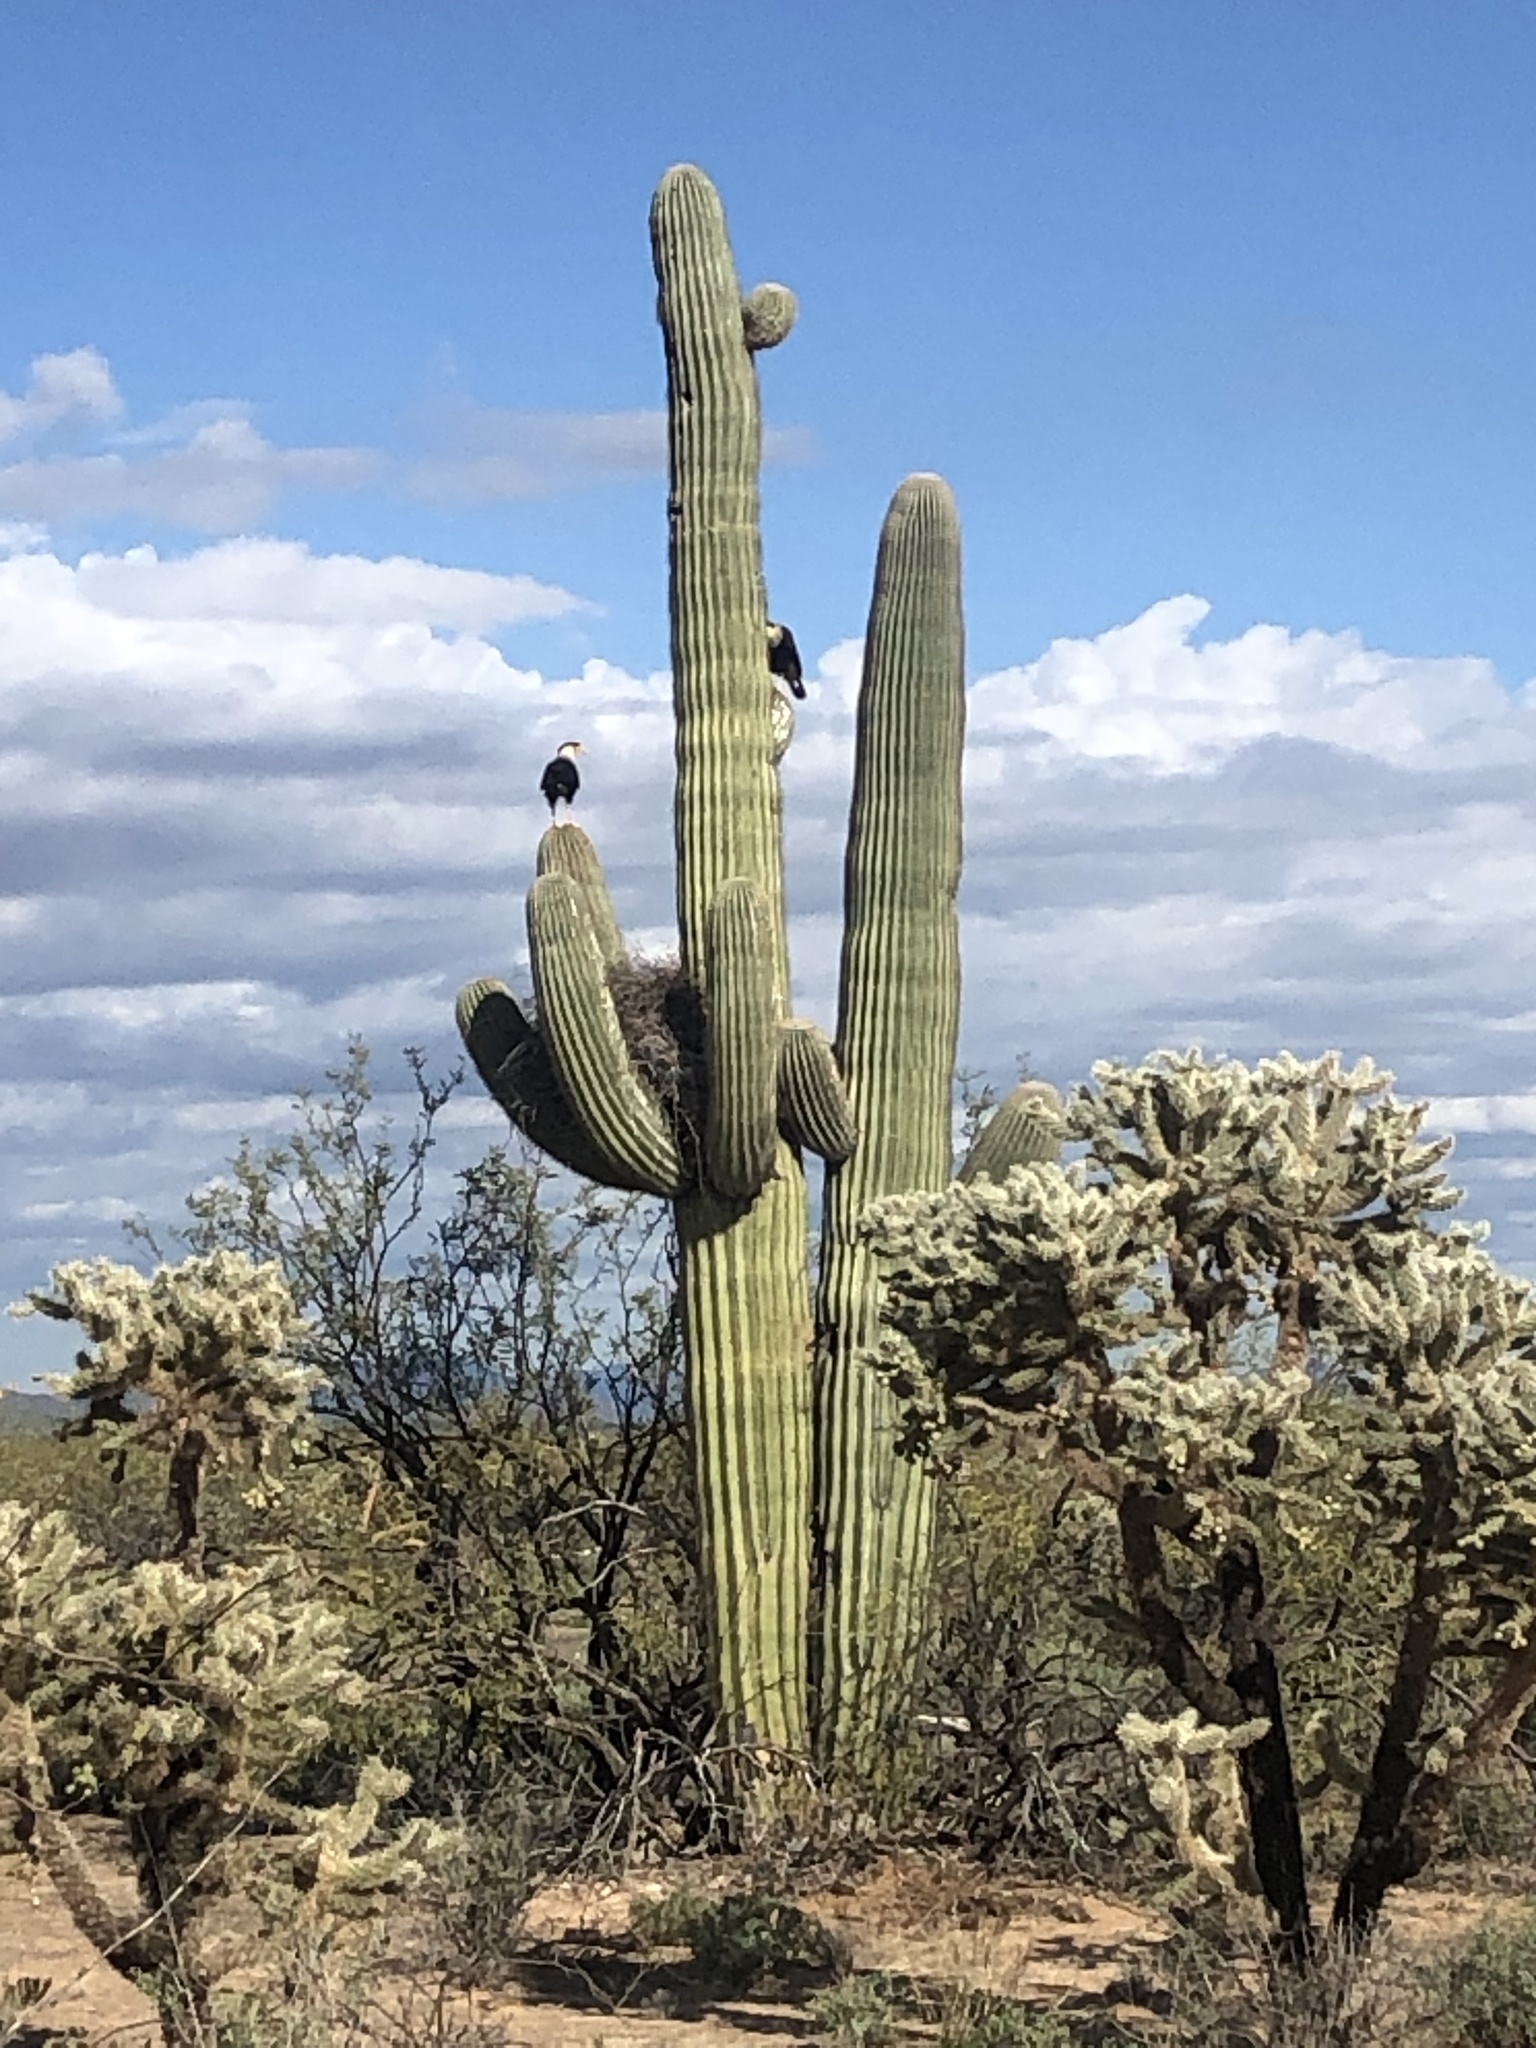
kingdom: Plantae
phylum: Tracheophyta
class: Magnoliopsida
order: Caryophyllales
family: Cactaceae
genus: Carnegiea
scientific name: Carnegiea gigantea
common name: Saguaro
